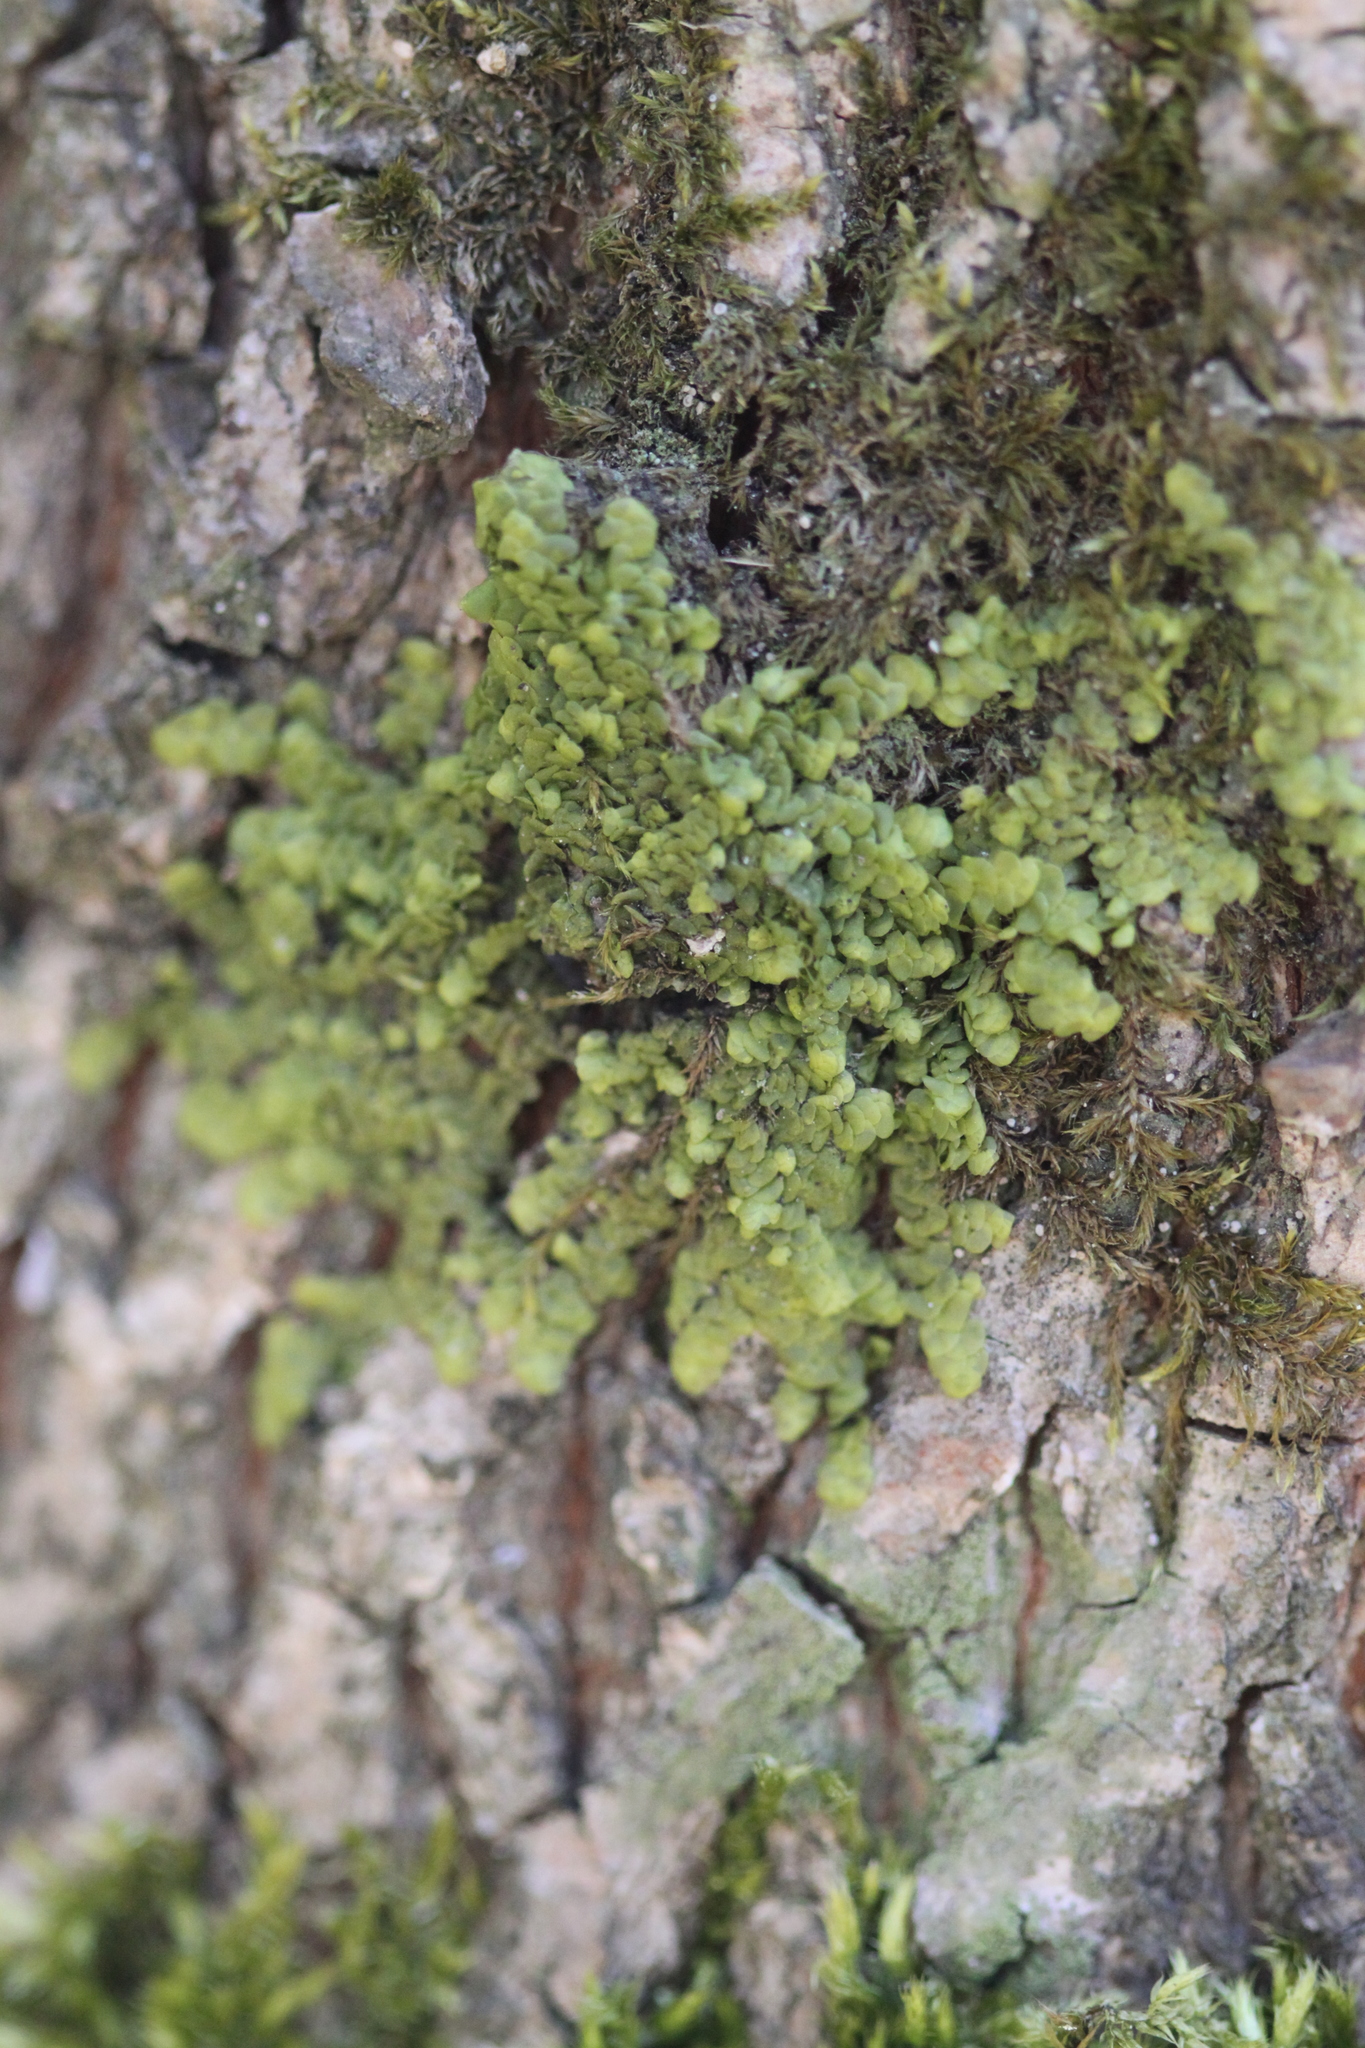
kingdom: Plantae
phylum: Marchantiophyta
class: Jungermanniopsida
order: Porellales
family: Radulaceae
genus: Radula
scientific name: Radula complanata
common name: Flat-leaved scalewort
